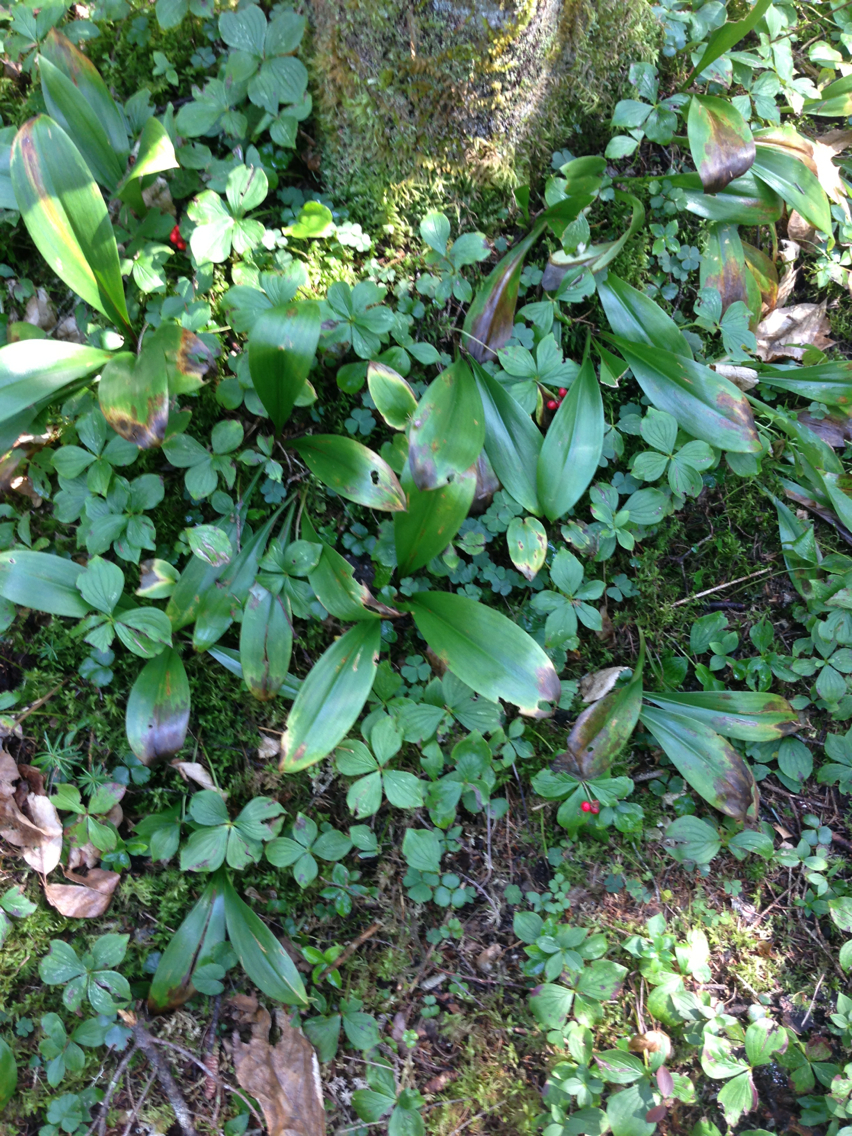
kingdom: Plantae
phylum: Tracheophyta
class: Liliopsida
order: Liliales
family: Liliaceae
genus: Clintonia
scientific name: Clintonia borealis
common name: Yellow clintonia
